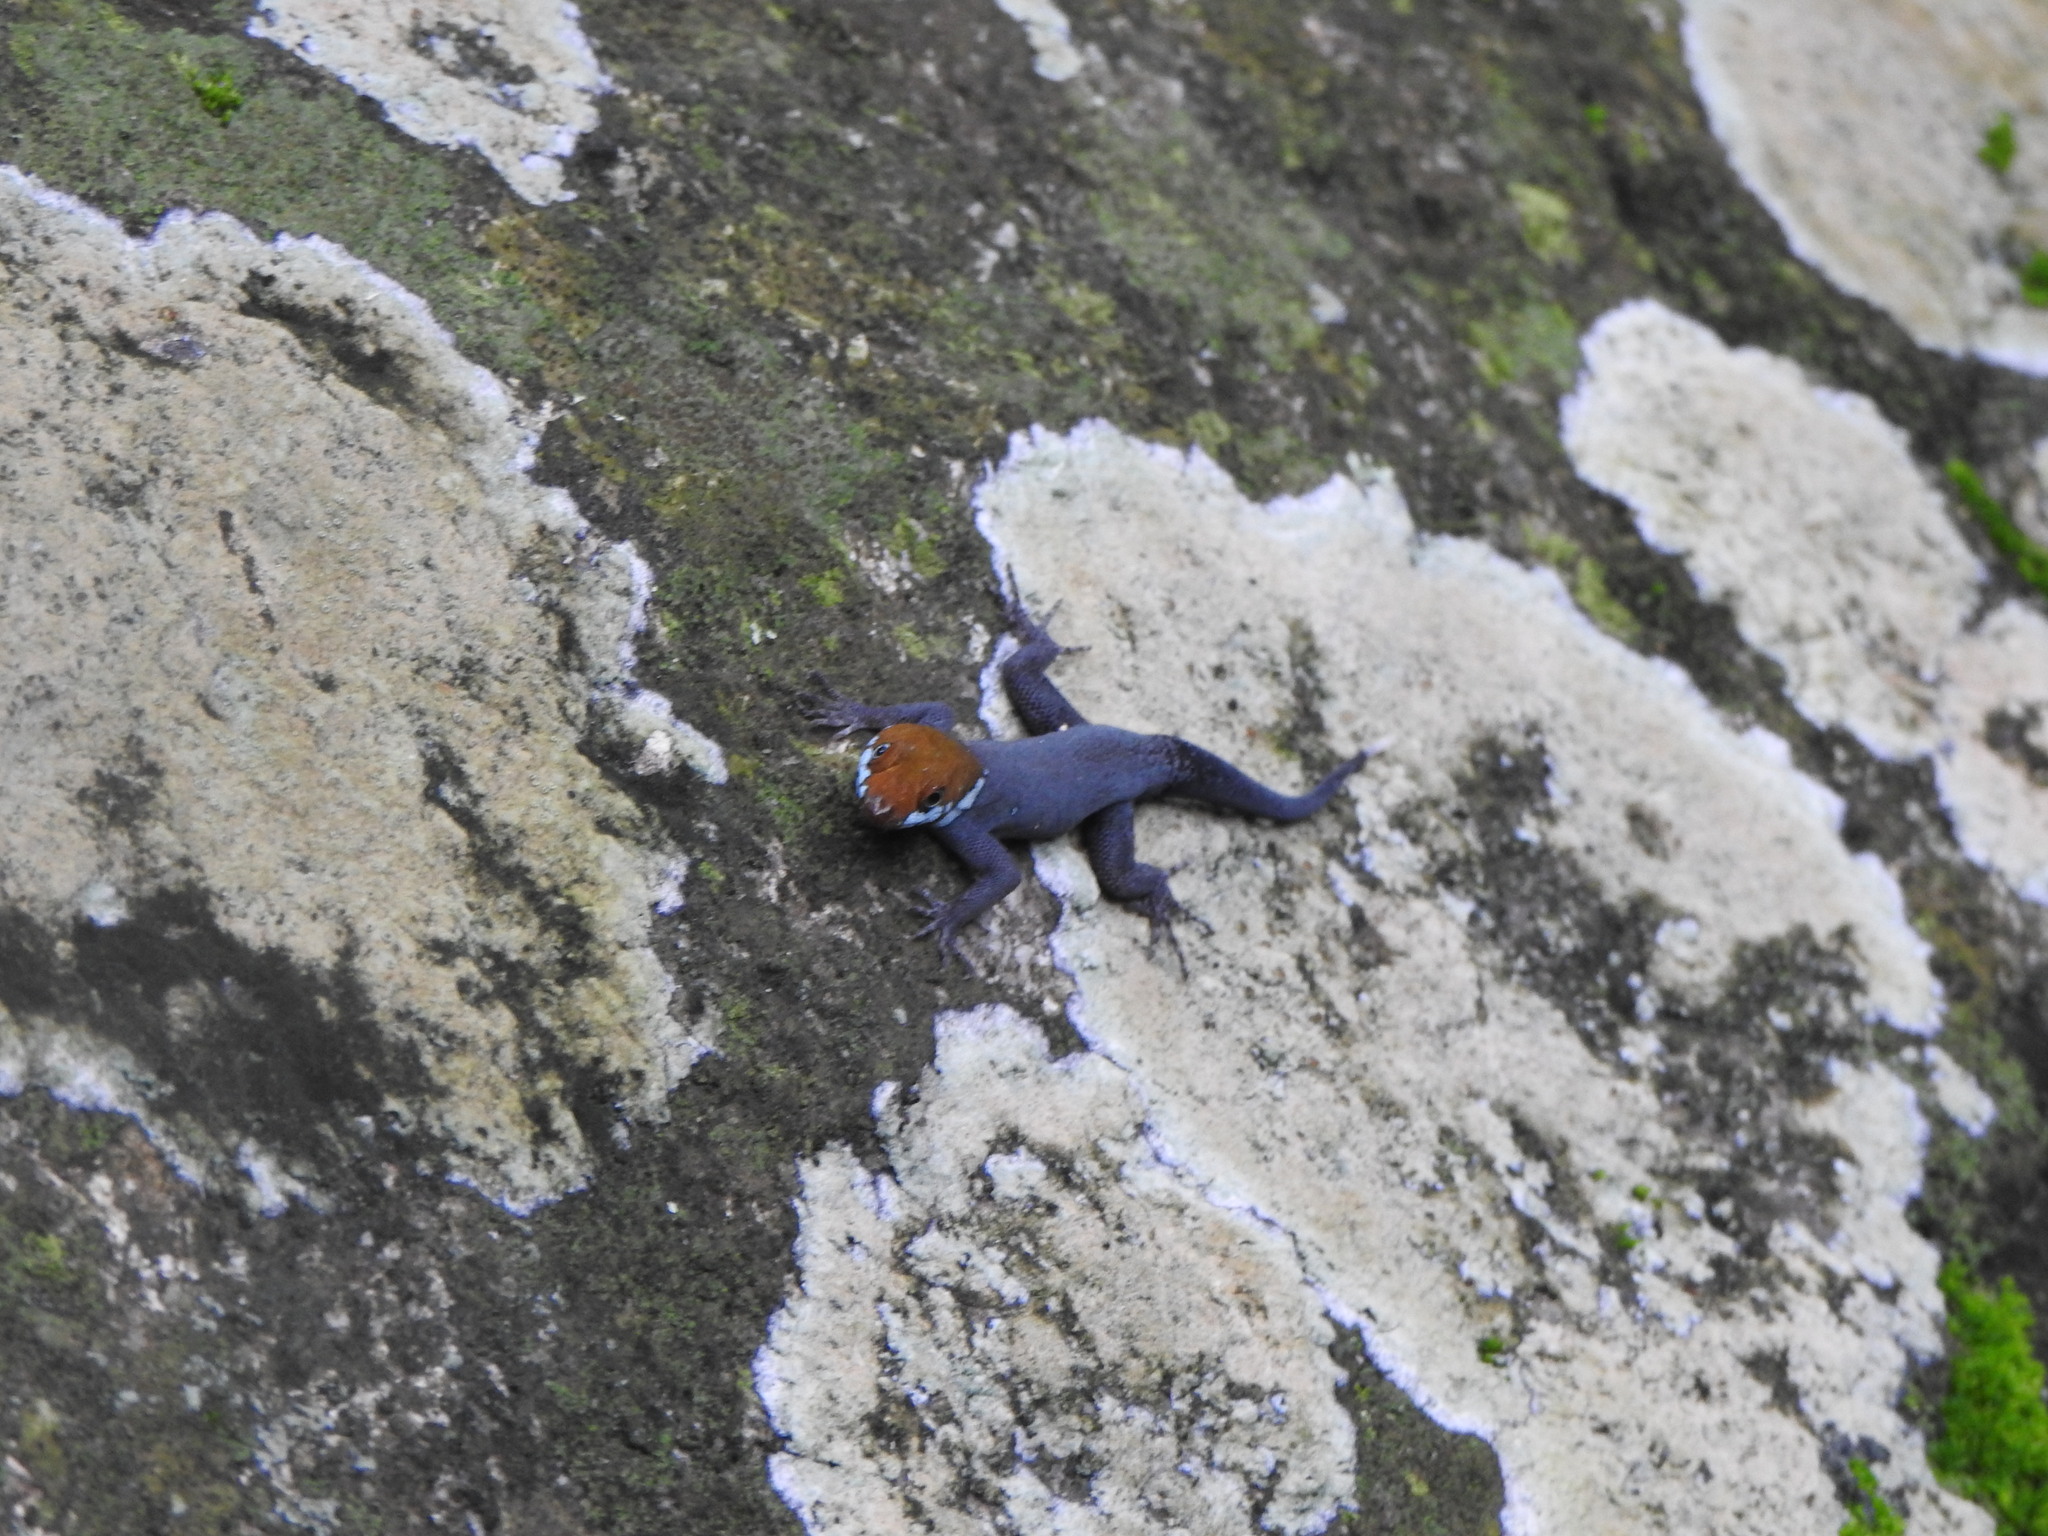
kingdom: Animalia
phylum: Chordata
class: Squamata
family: Sphaerodactylidae
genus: Gonatodes
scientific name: Gonatodes albogularis
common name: Yellow-headed gecko
